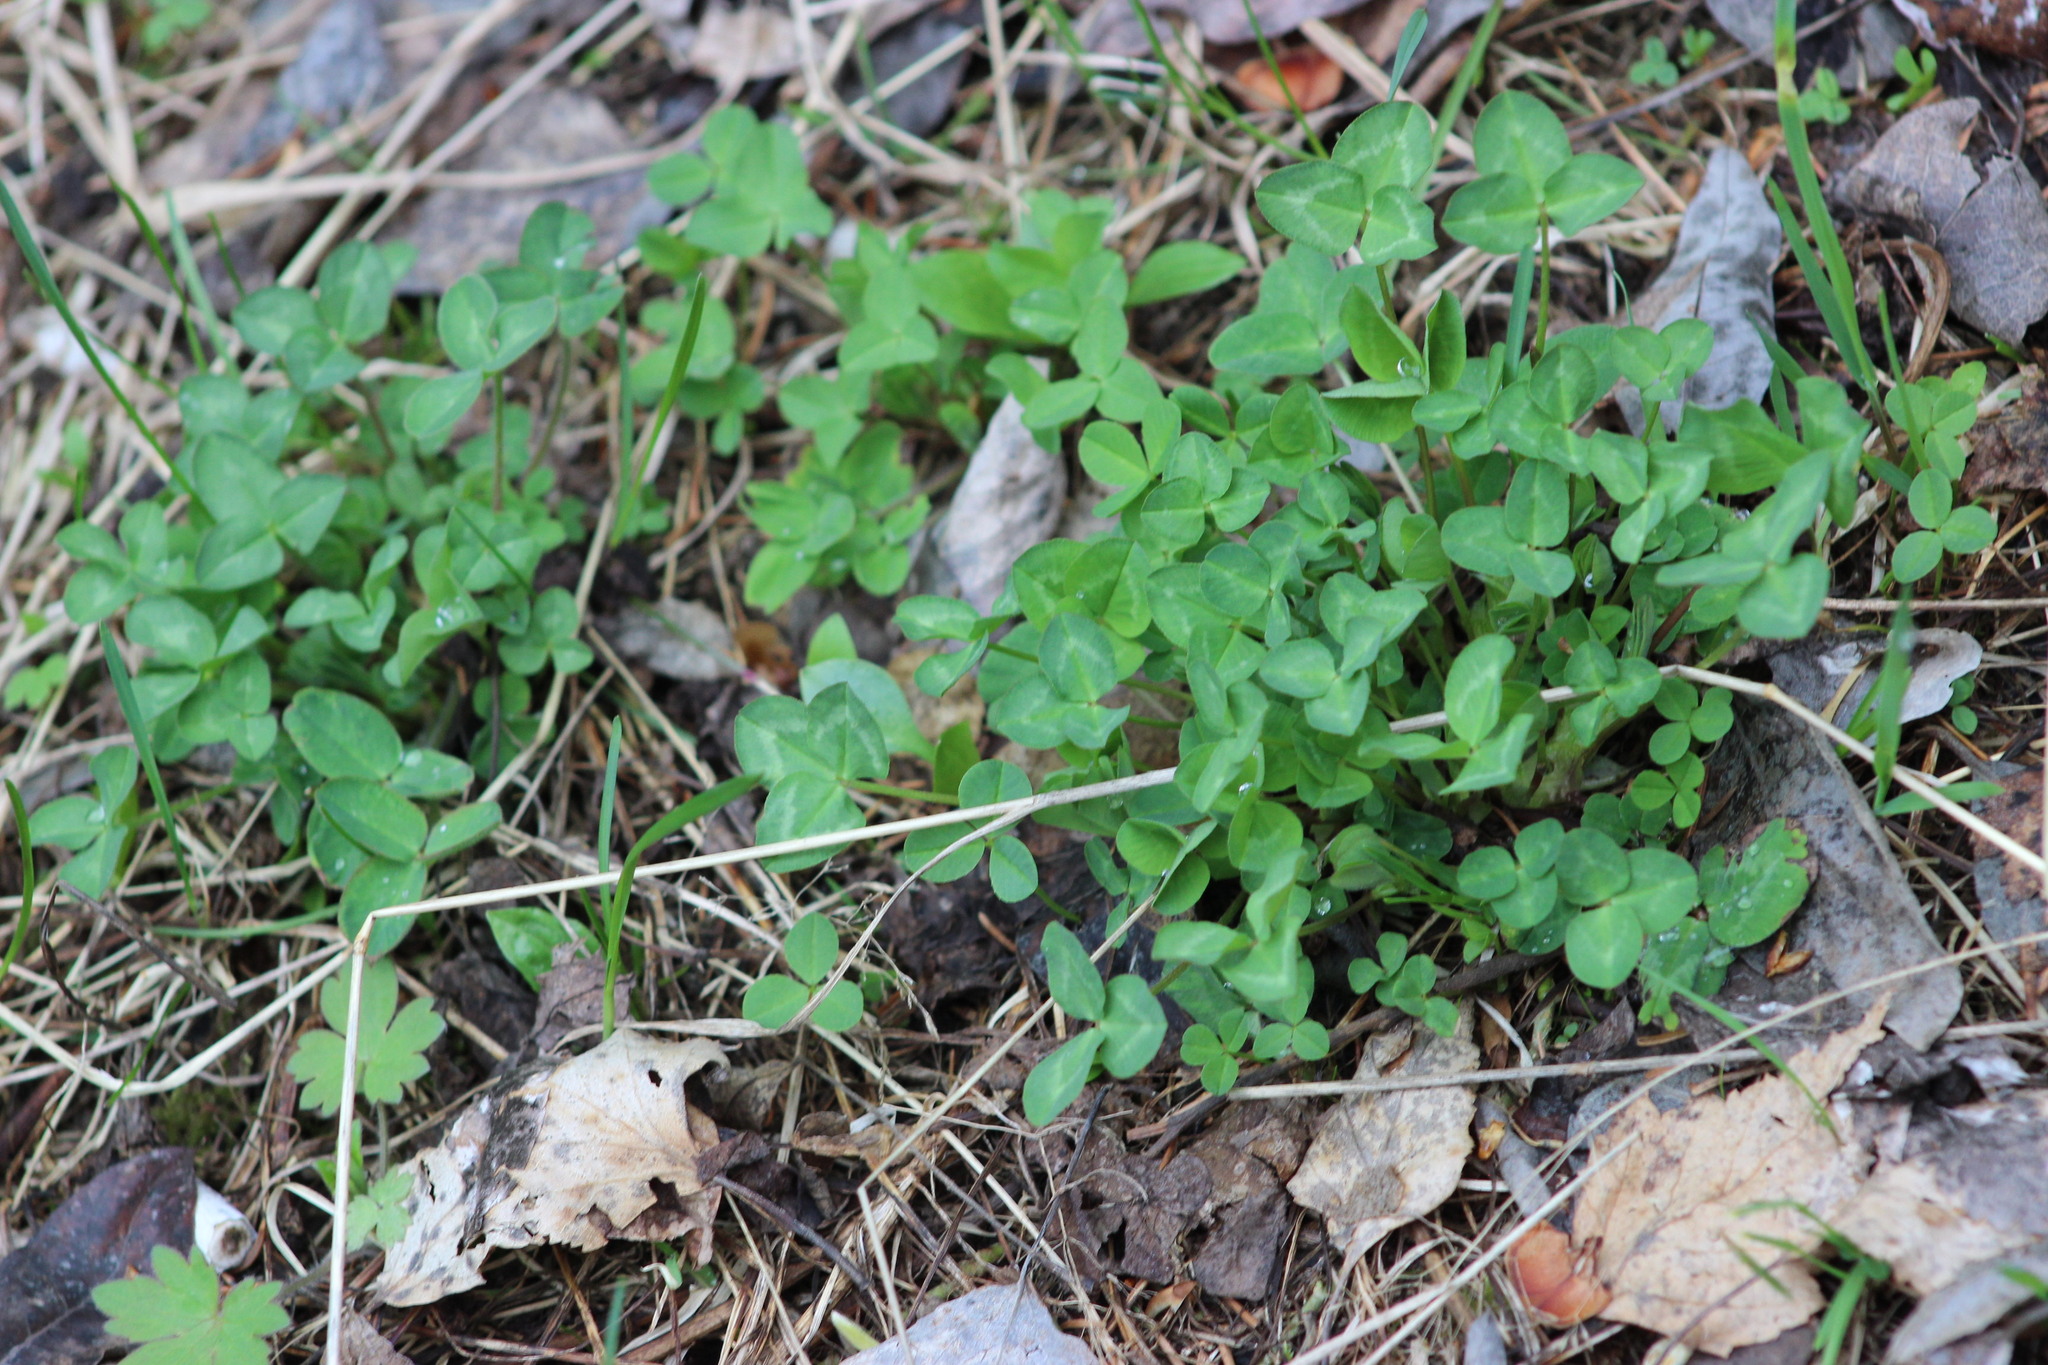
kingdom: Plantae
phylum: Tracheophyta
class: Magnoliopsida
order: Fabales
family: Fabaceae
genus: Trifolium
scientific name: Trifolium pratense
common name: Red clover
